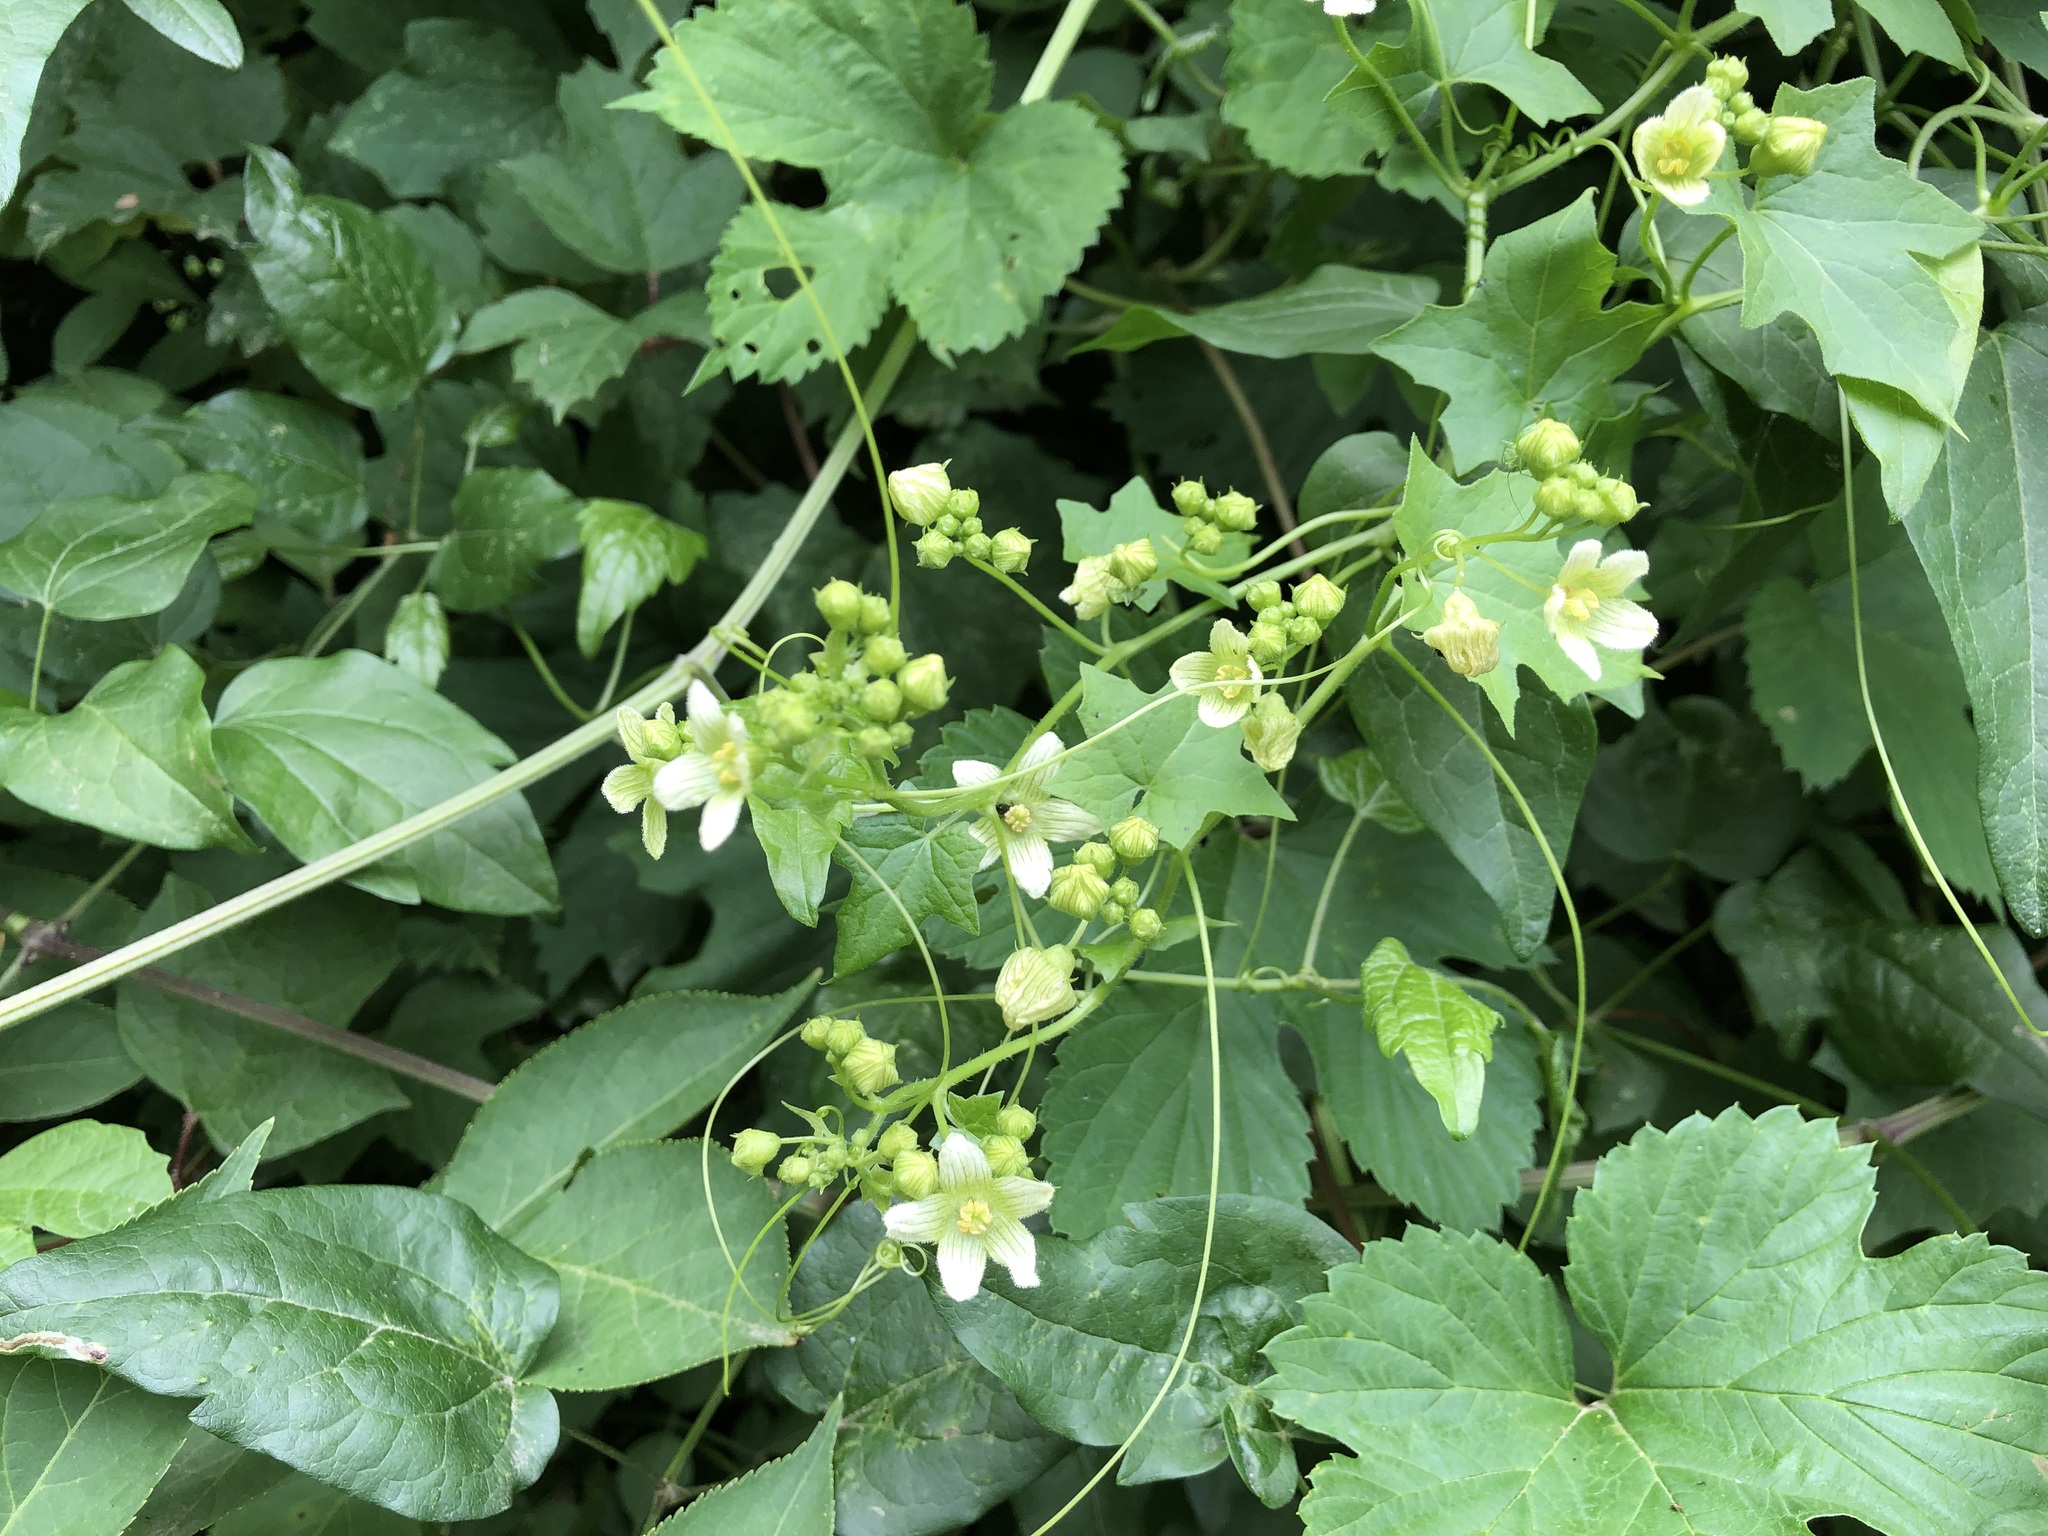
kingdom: Plantae
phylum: Tracheophyta
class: Magnoliopsida
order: Cucurbitales
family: Cucurbitaceae
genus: Bryonia
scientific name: Bryonia cretica
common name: Cretan bryony
